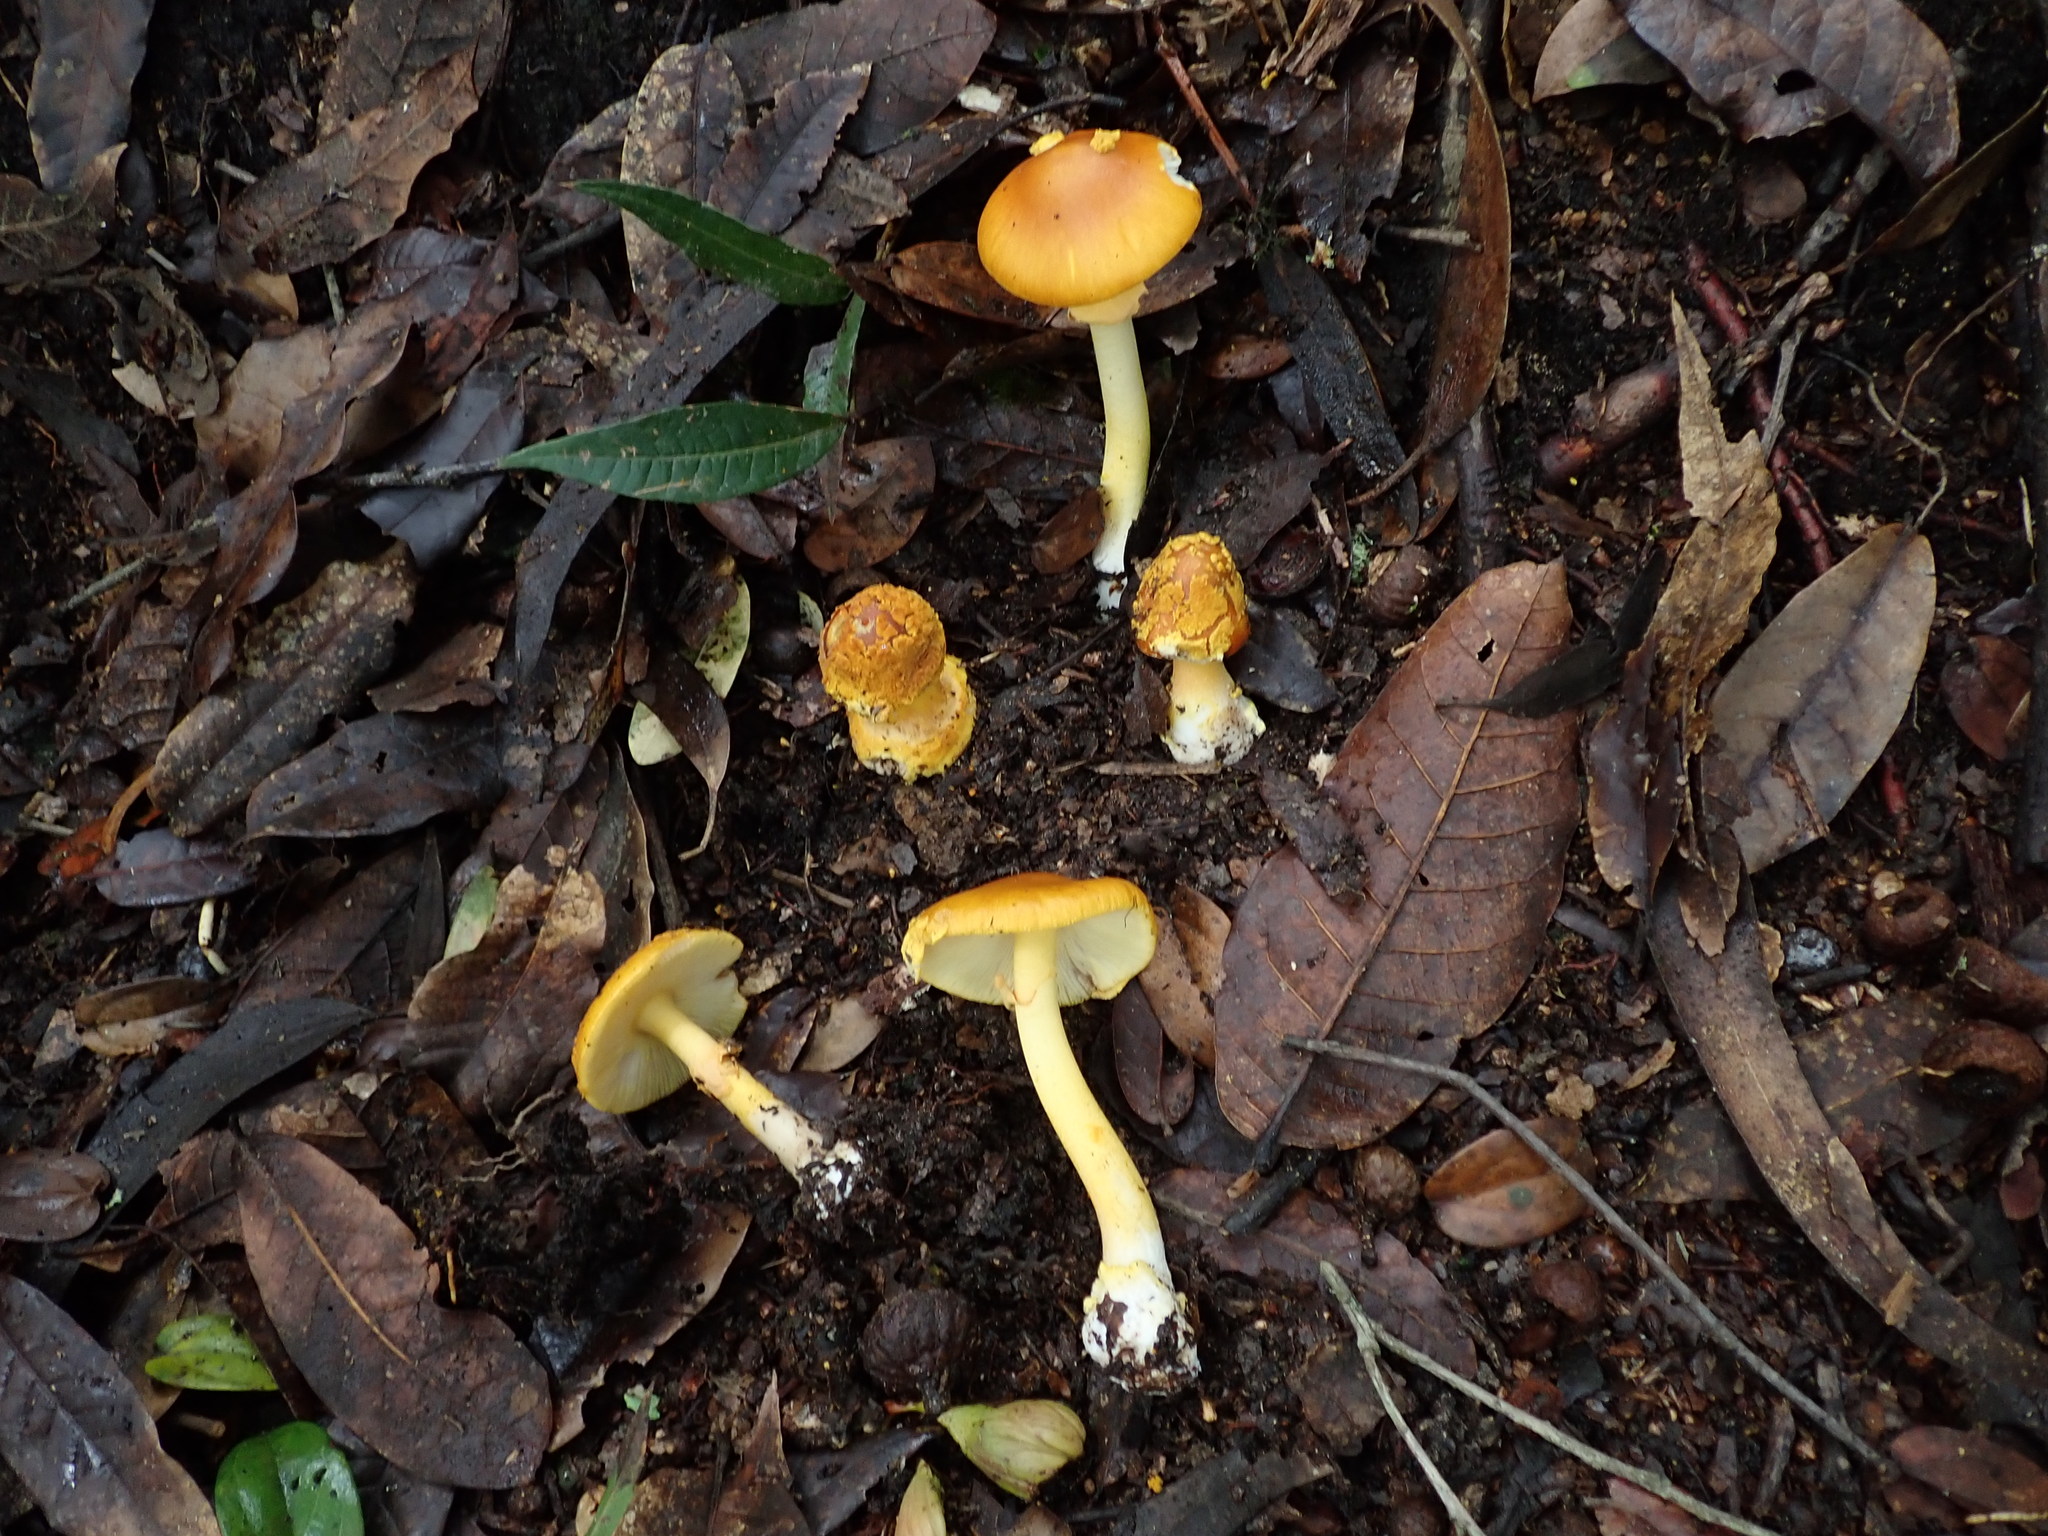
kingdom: Fungi
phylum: Basidiomycota
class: Agaricomycetes
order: Agaricales
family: Amanitaceae
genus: Amanita
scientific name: Amanita flavoconia
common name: Yellow patches
